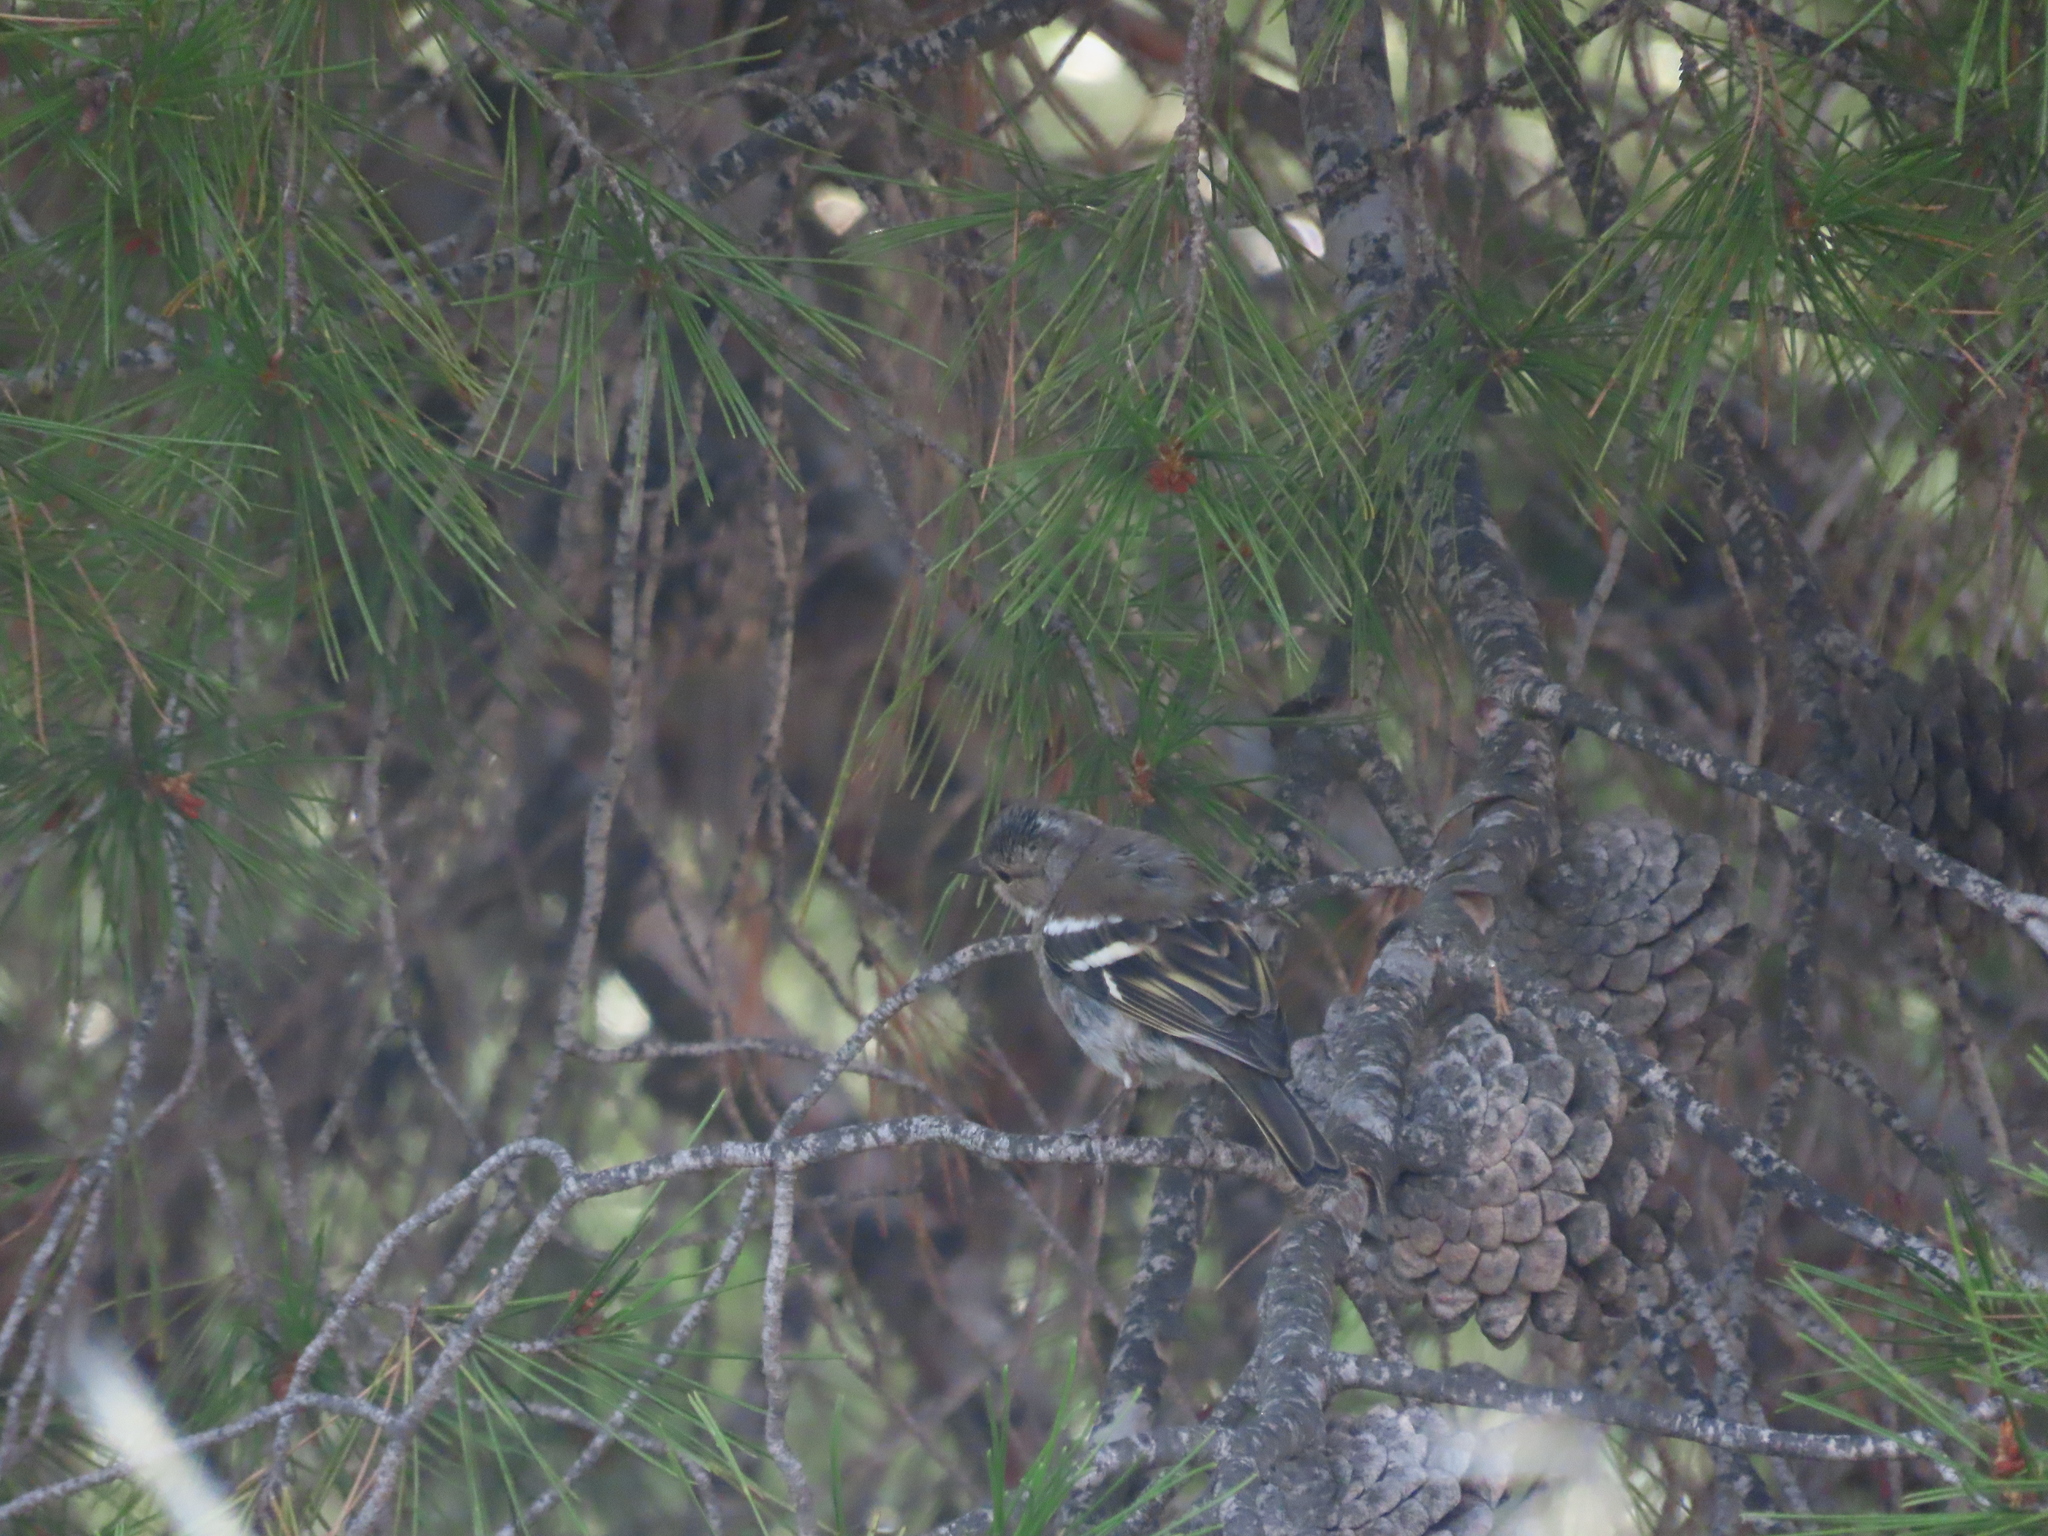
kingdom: Animalia
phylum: Chordata
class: Aves
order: Passeriformes
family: Fringillidae
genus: Fringilla
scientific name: Fringilla coelebs
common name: Common chaffinch
